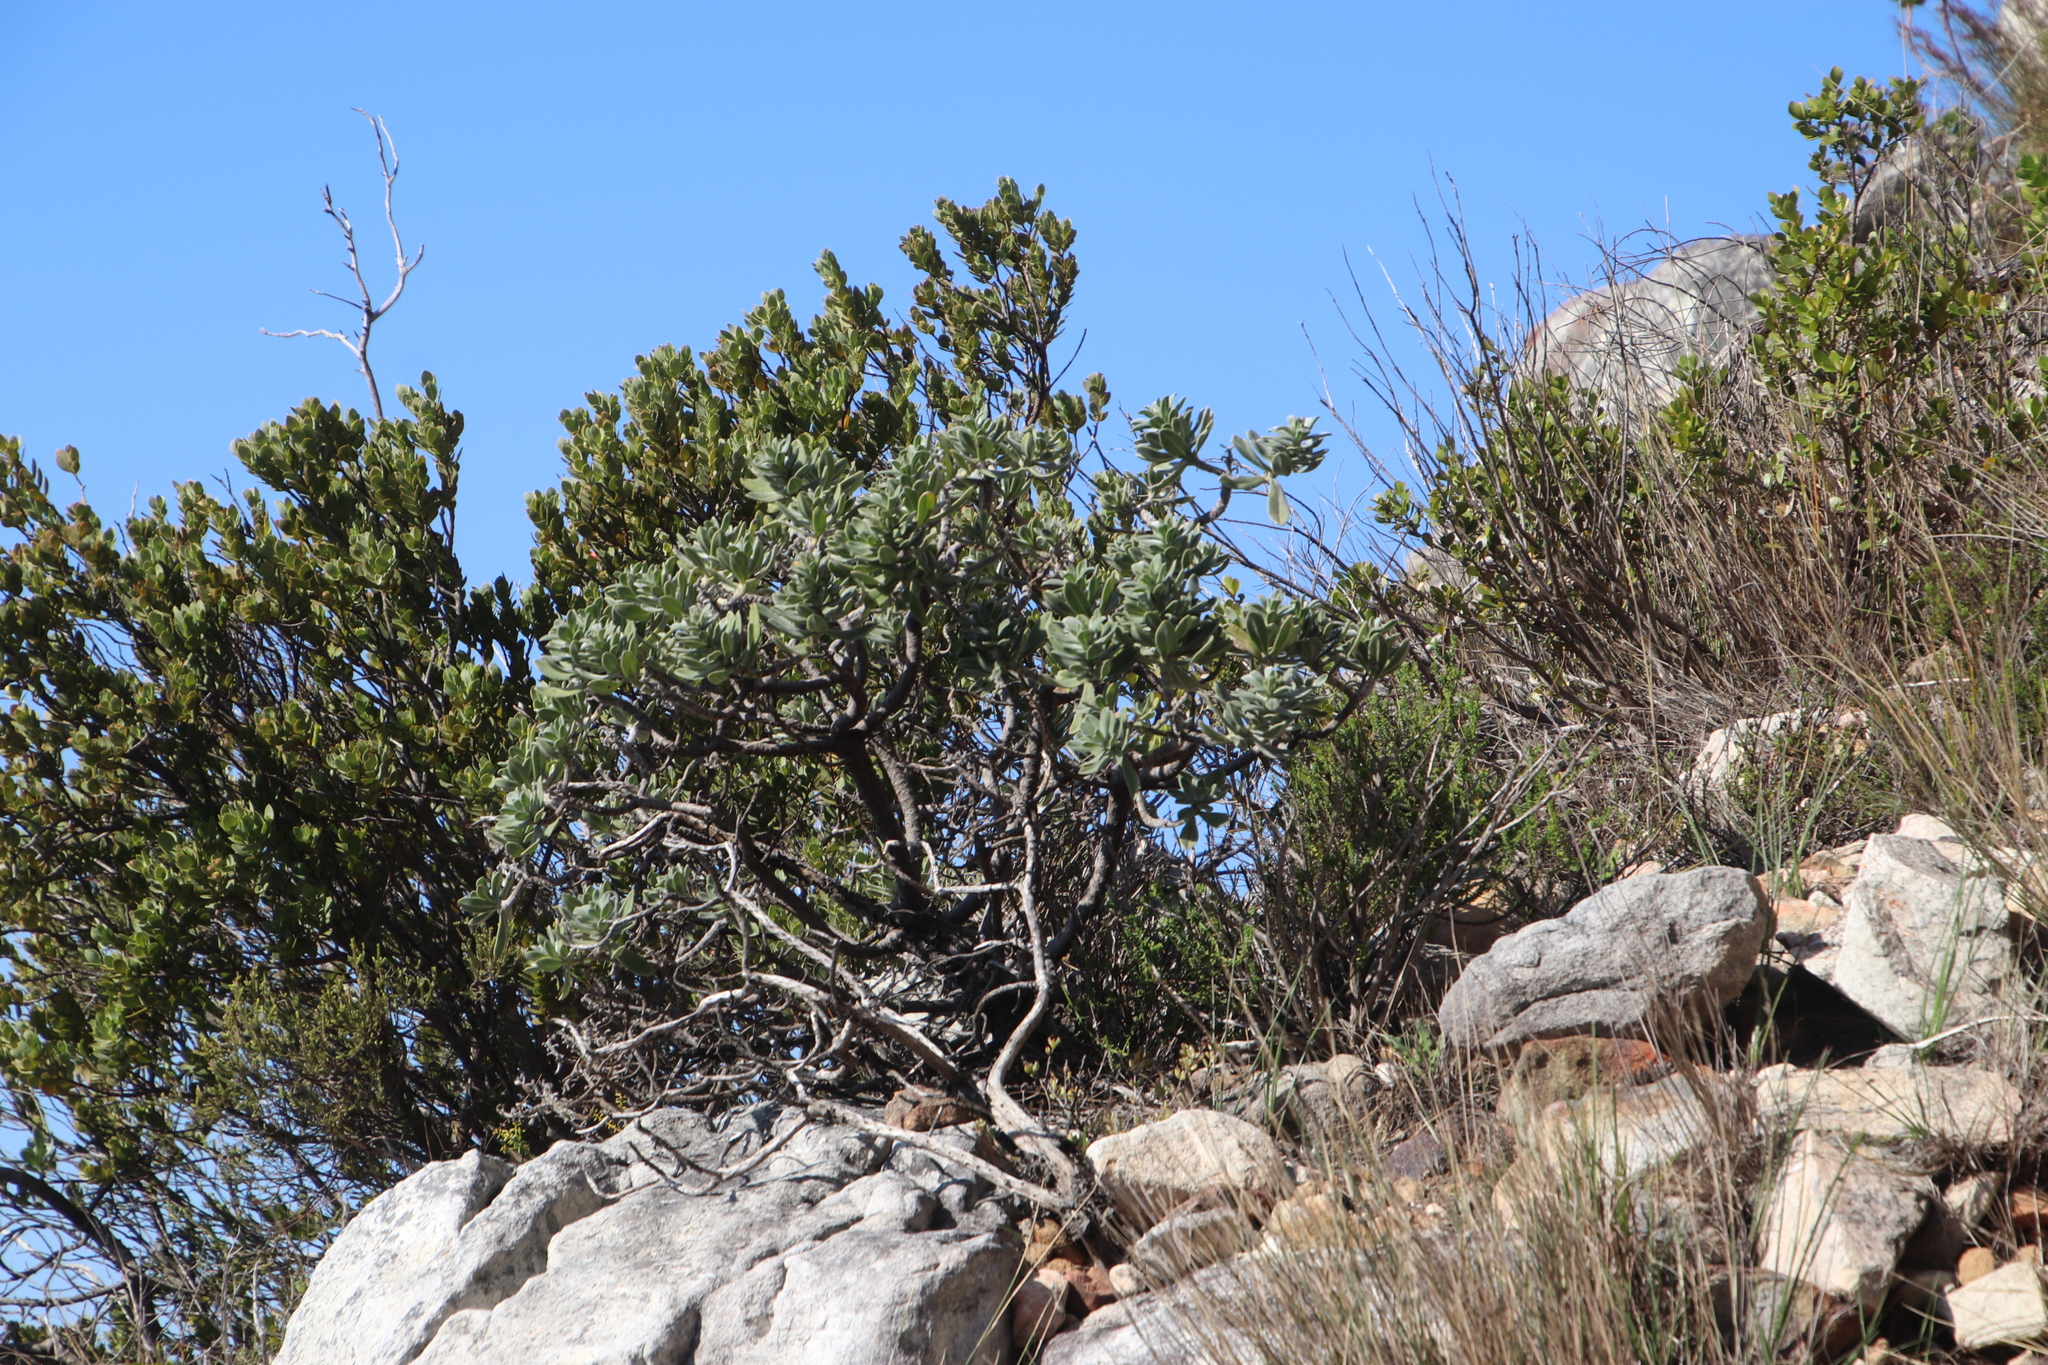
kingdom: Plantae
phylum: Tracheophyta
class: Magnoliopsida
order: Boraginales
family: Boraginaceae
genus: Lobostemon
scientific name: Lobostemon montanus
